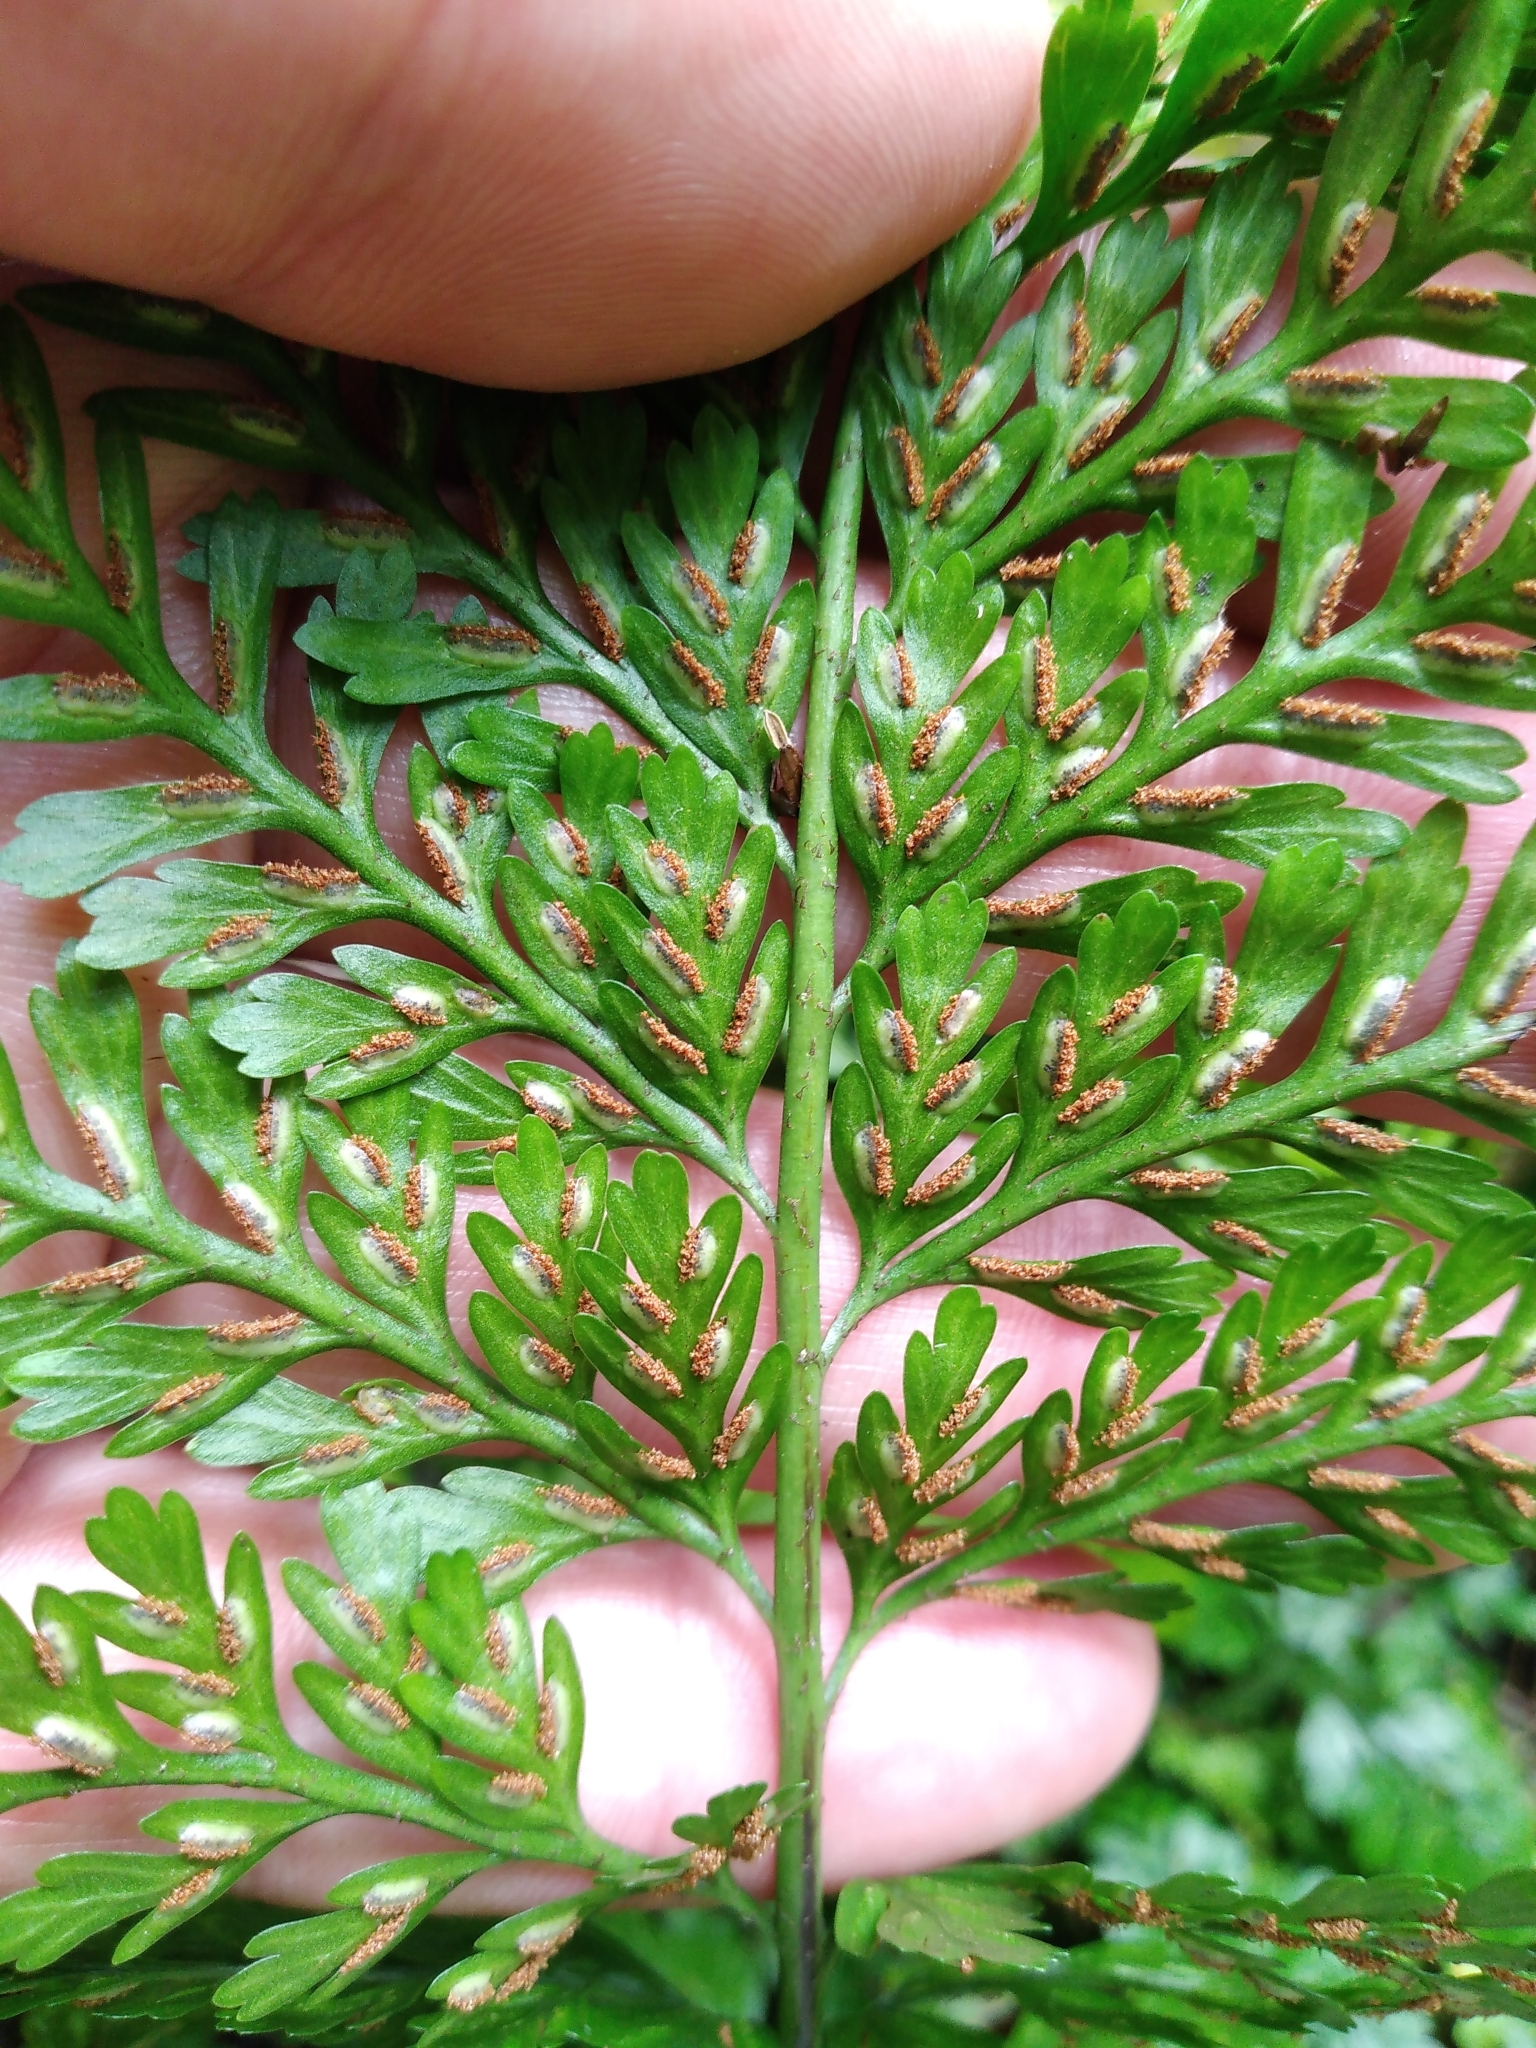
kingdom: Plantae
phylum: Tracheophyta
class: Polypodiopsida
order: Polypodiales
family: Aspleniaceae
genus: Asplenium
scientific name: Asplenium
